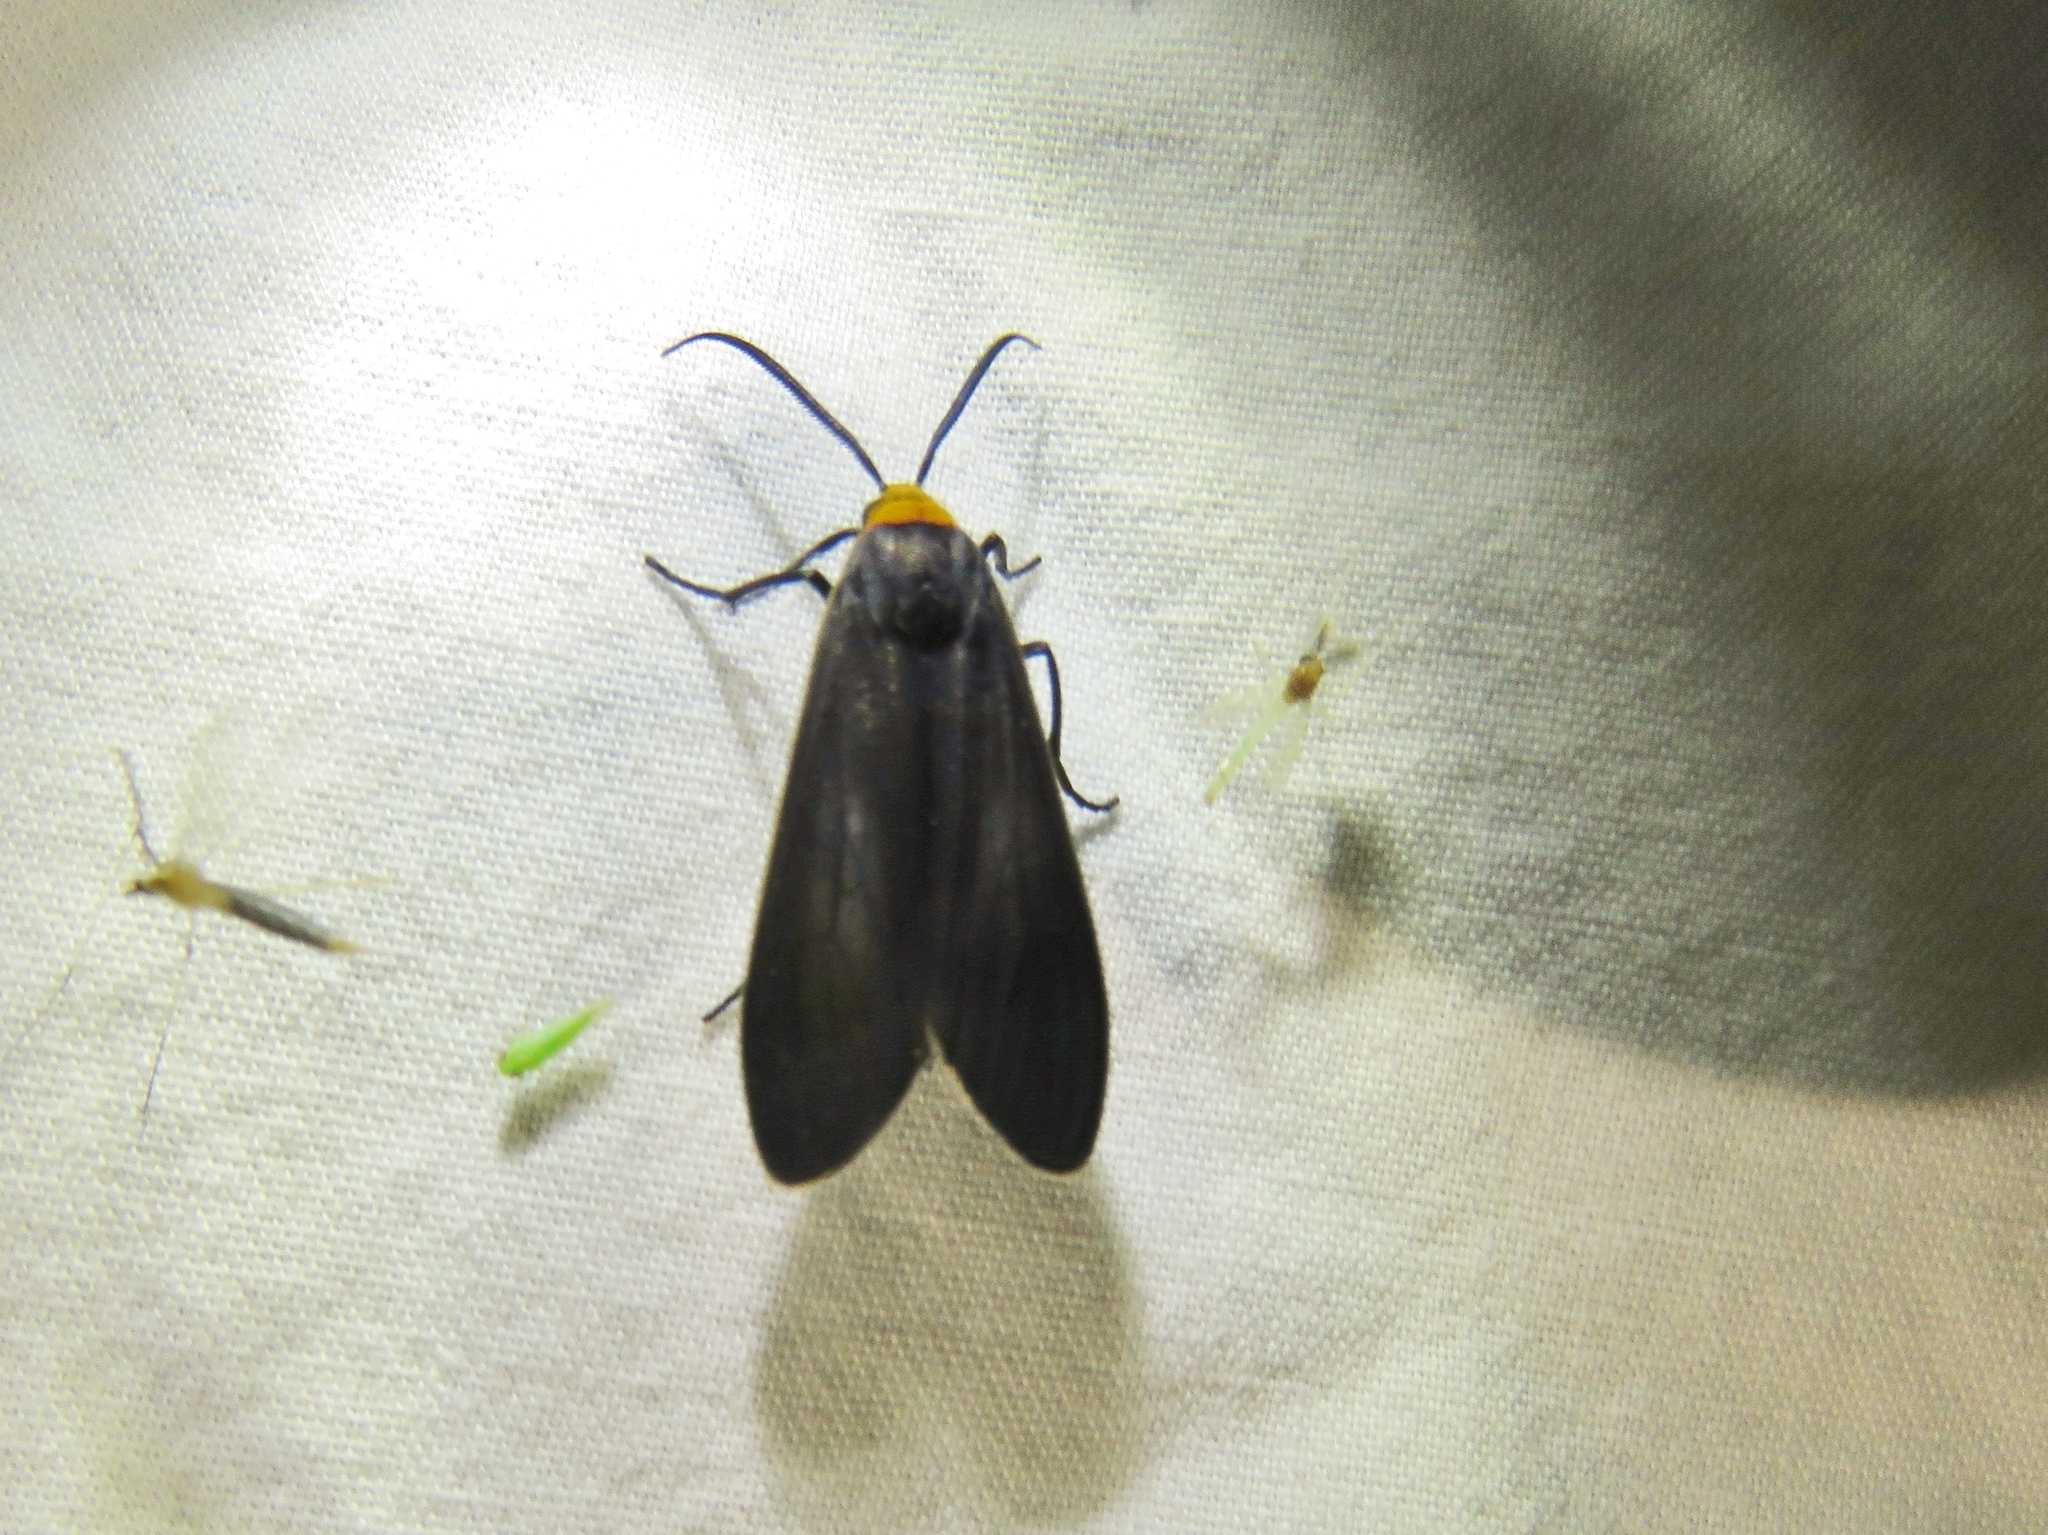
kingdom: Animalia
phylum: Arthropoda
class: Insecta
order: Lepidoptera
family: Erebidae
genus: Cisseps
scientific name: Cisseps fulvicollis
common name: Yellow-collared scape moth
